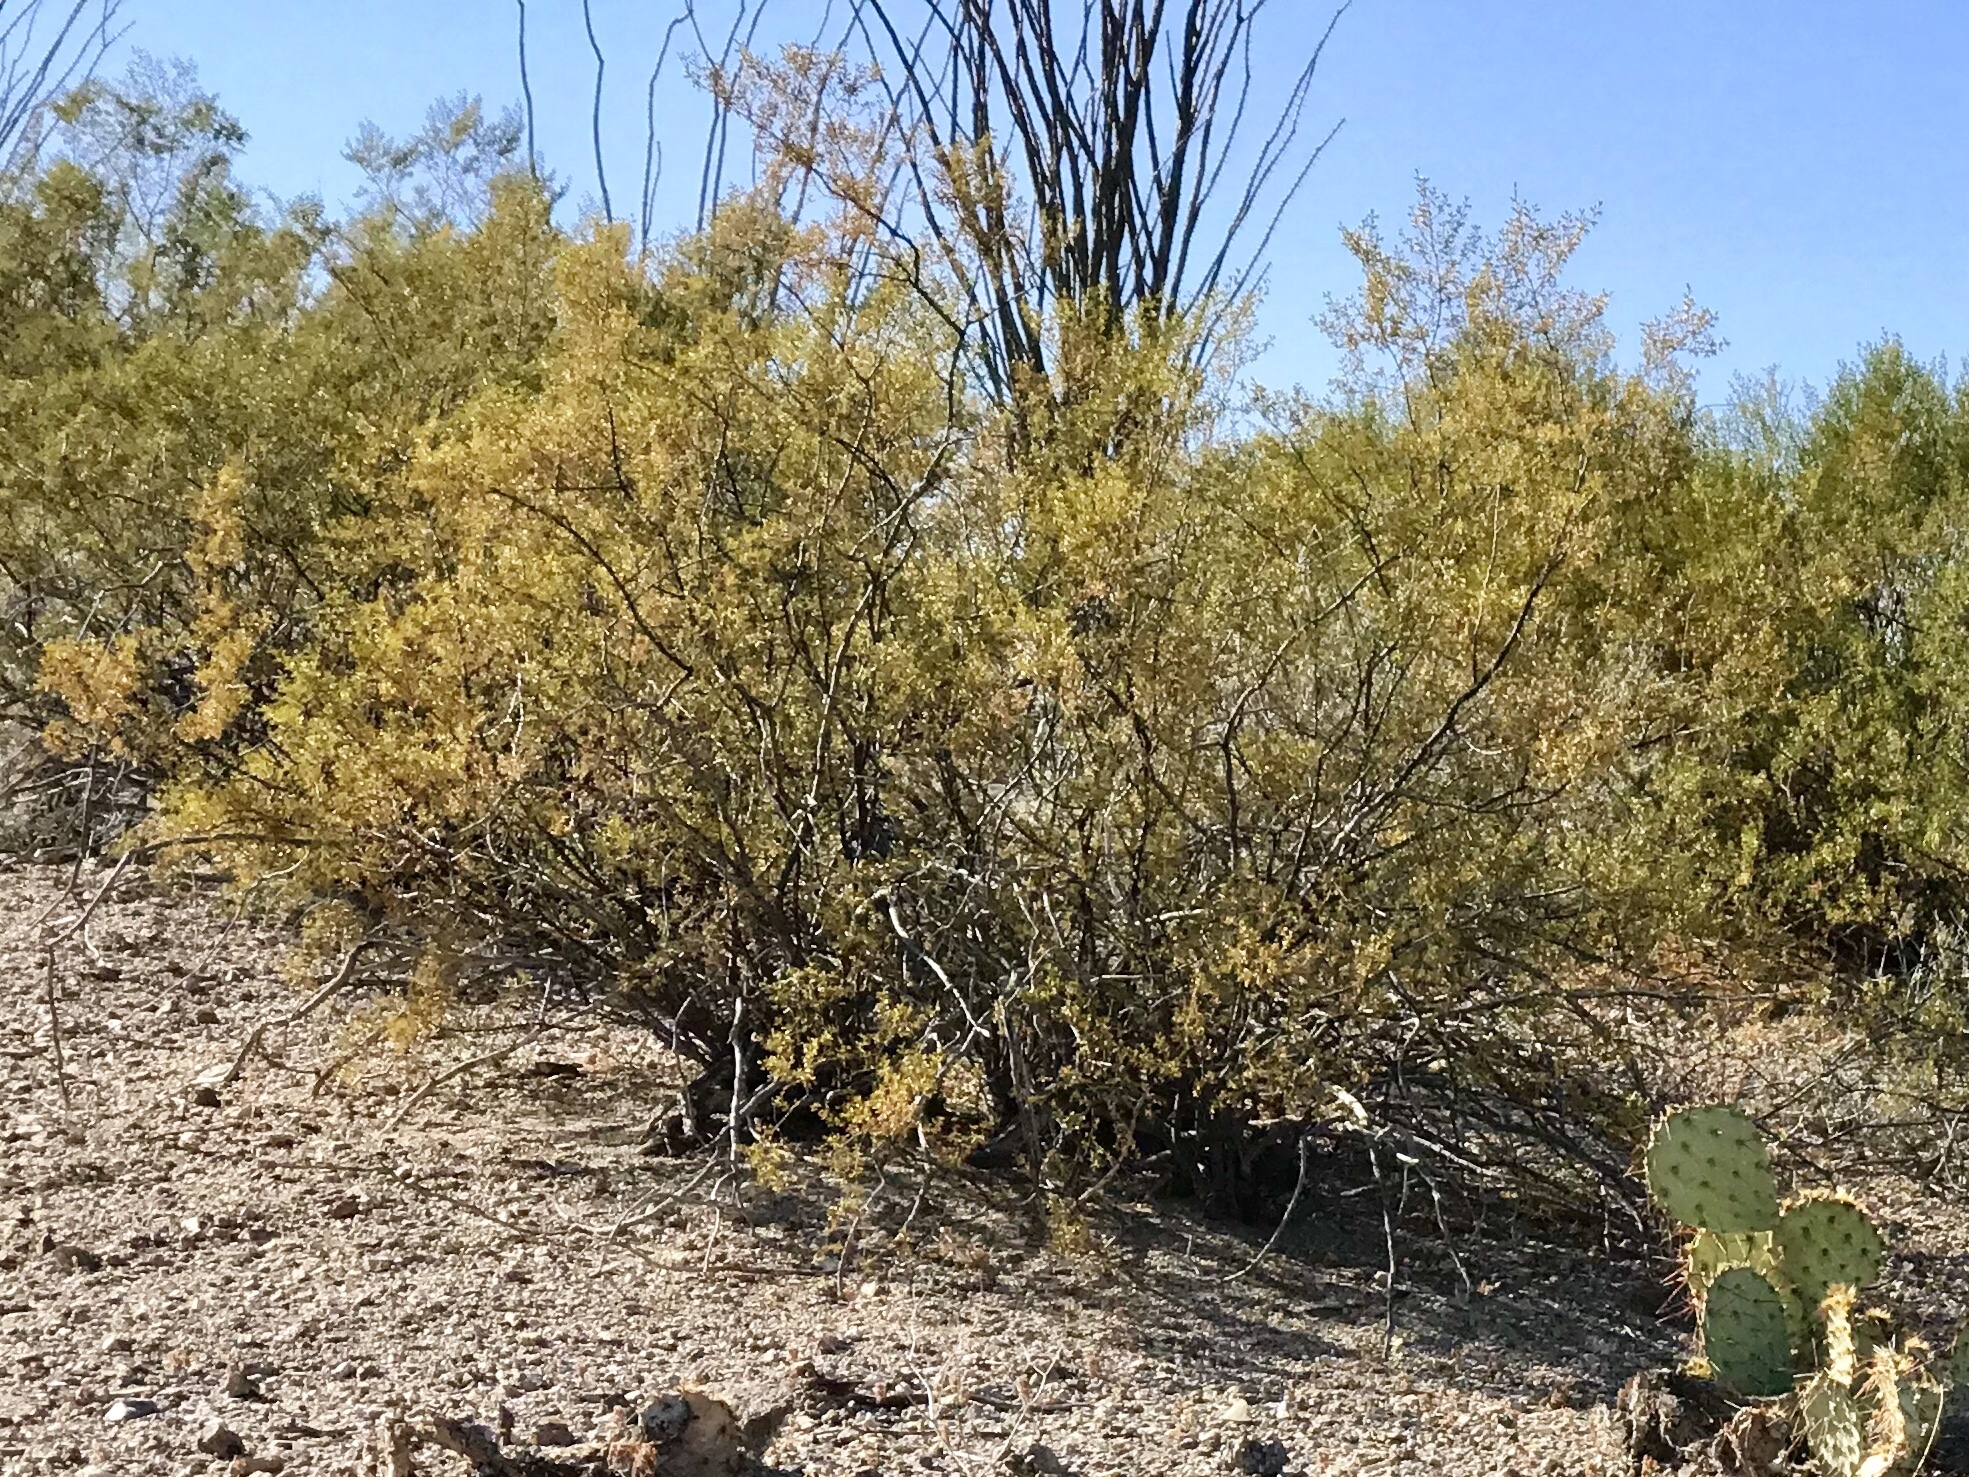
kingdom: Plantae
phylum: Tracheophyta
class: Magnoliopsida
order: Zygophyllales
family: Zygophyllaceae
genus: Larrea
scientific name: Larrea tridentata
